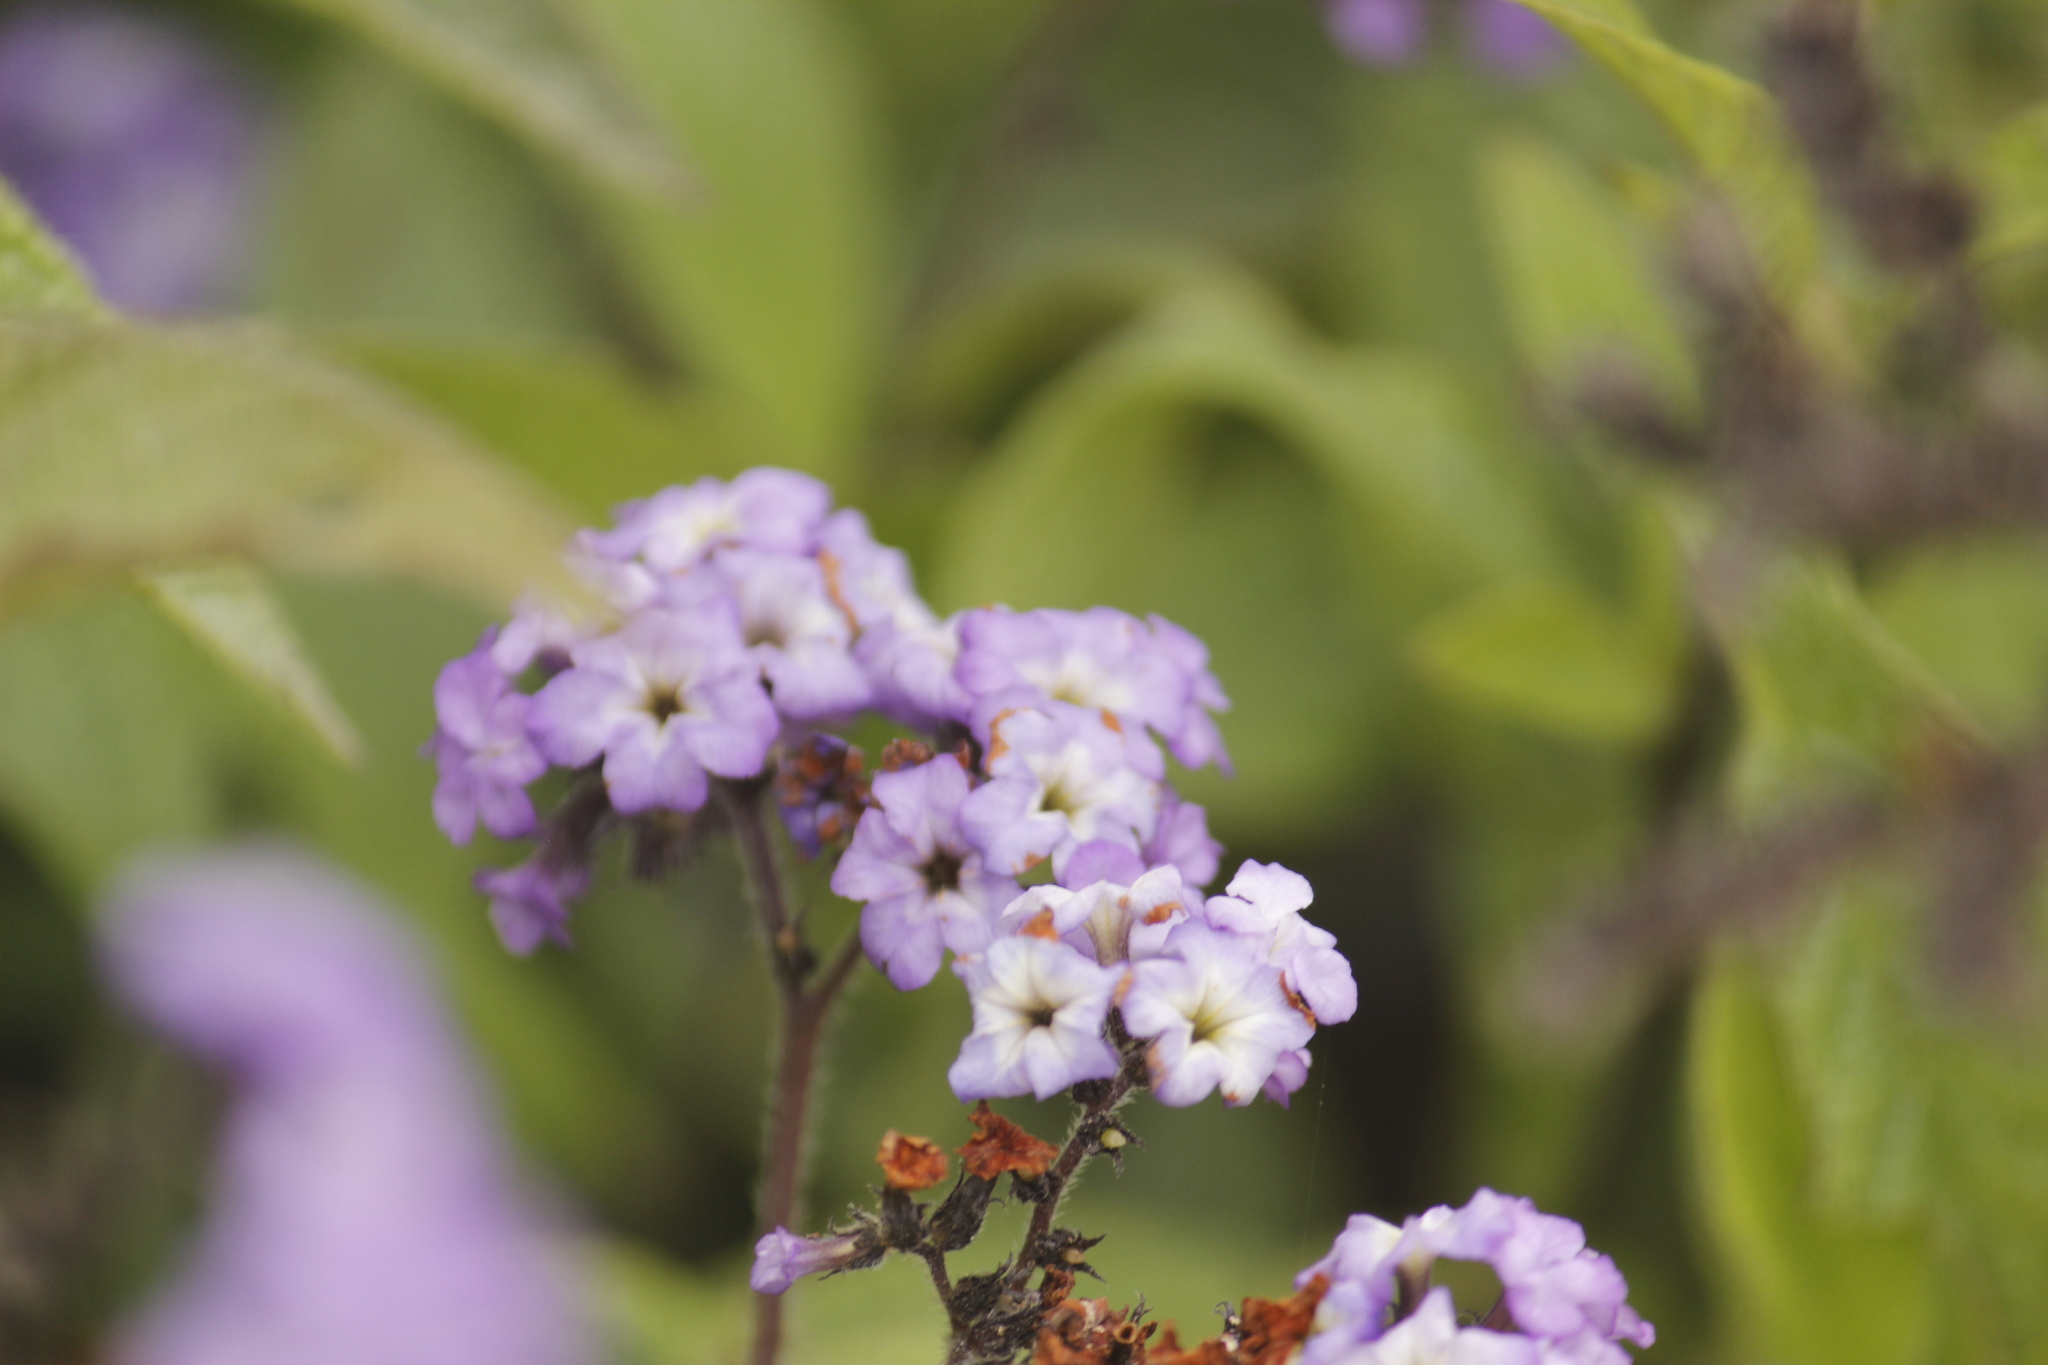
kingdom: Plantae
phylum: Tracheophyta
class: Magnoliopsida
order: Boraginales
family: Heliotropiaceae
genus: Heliotropium
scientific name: Heliotropium arborescens
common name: Cherry-pie
